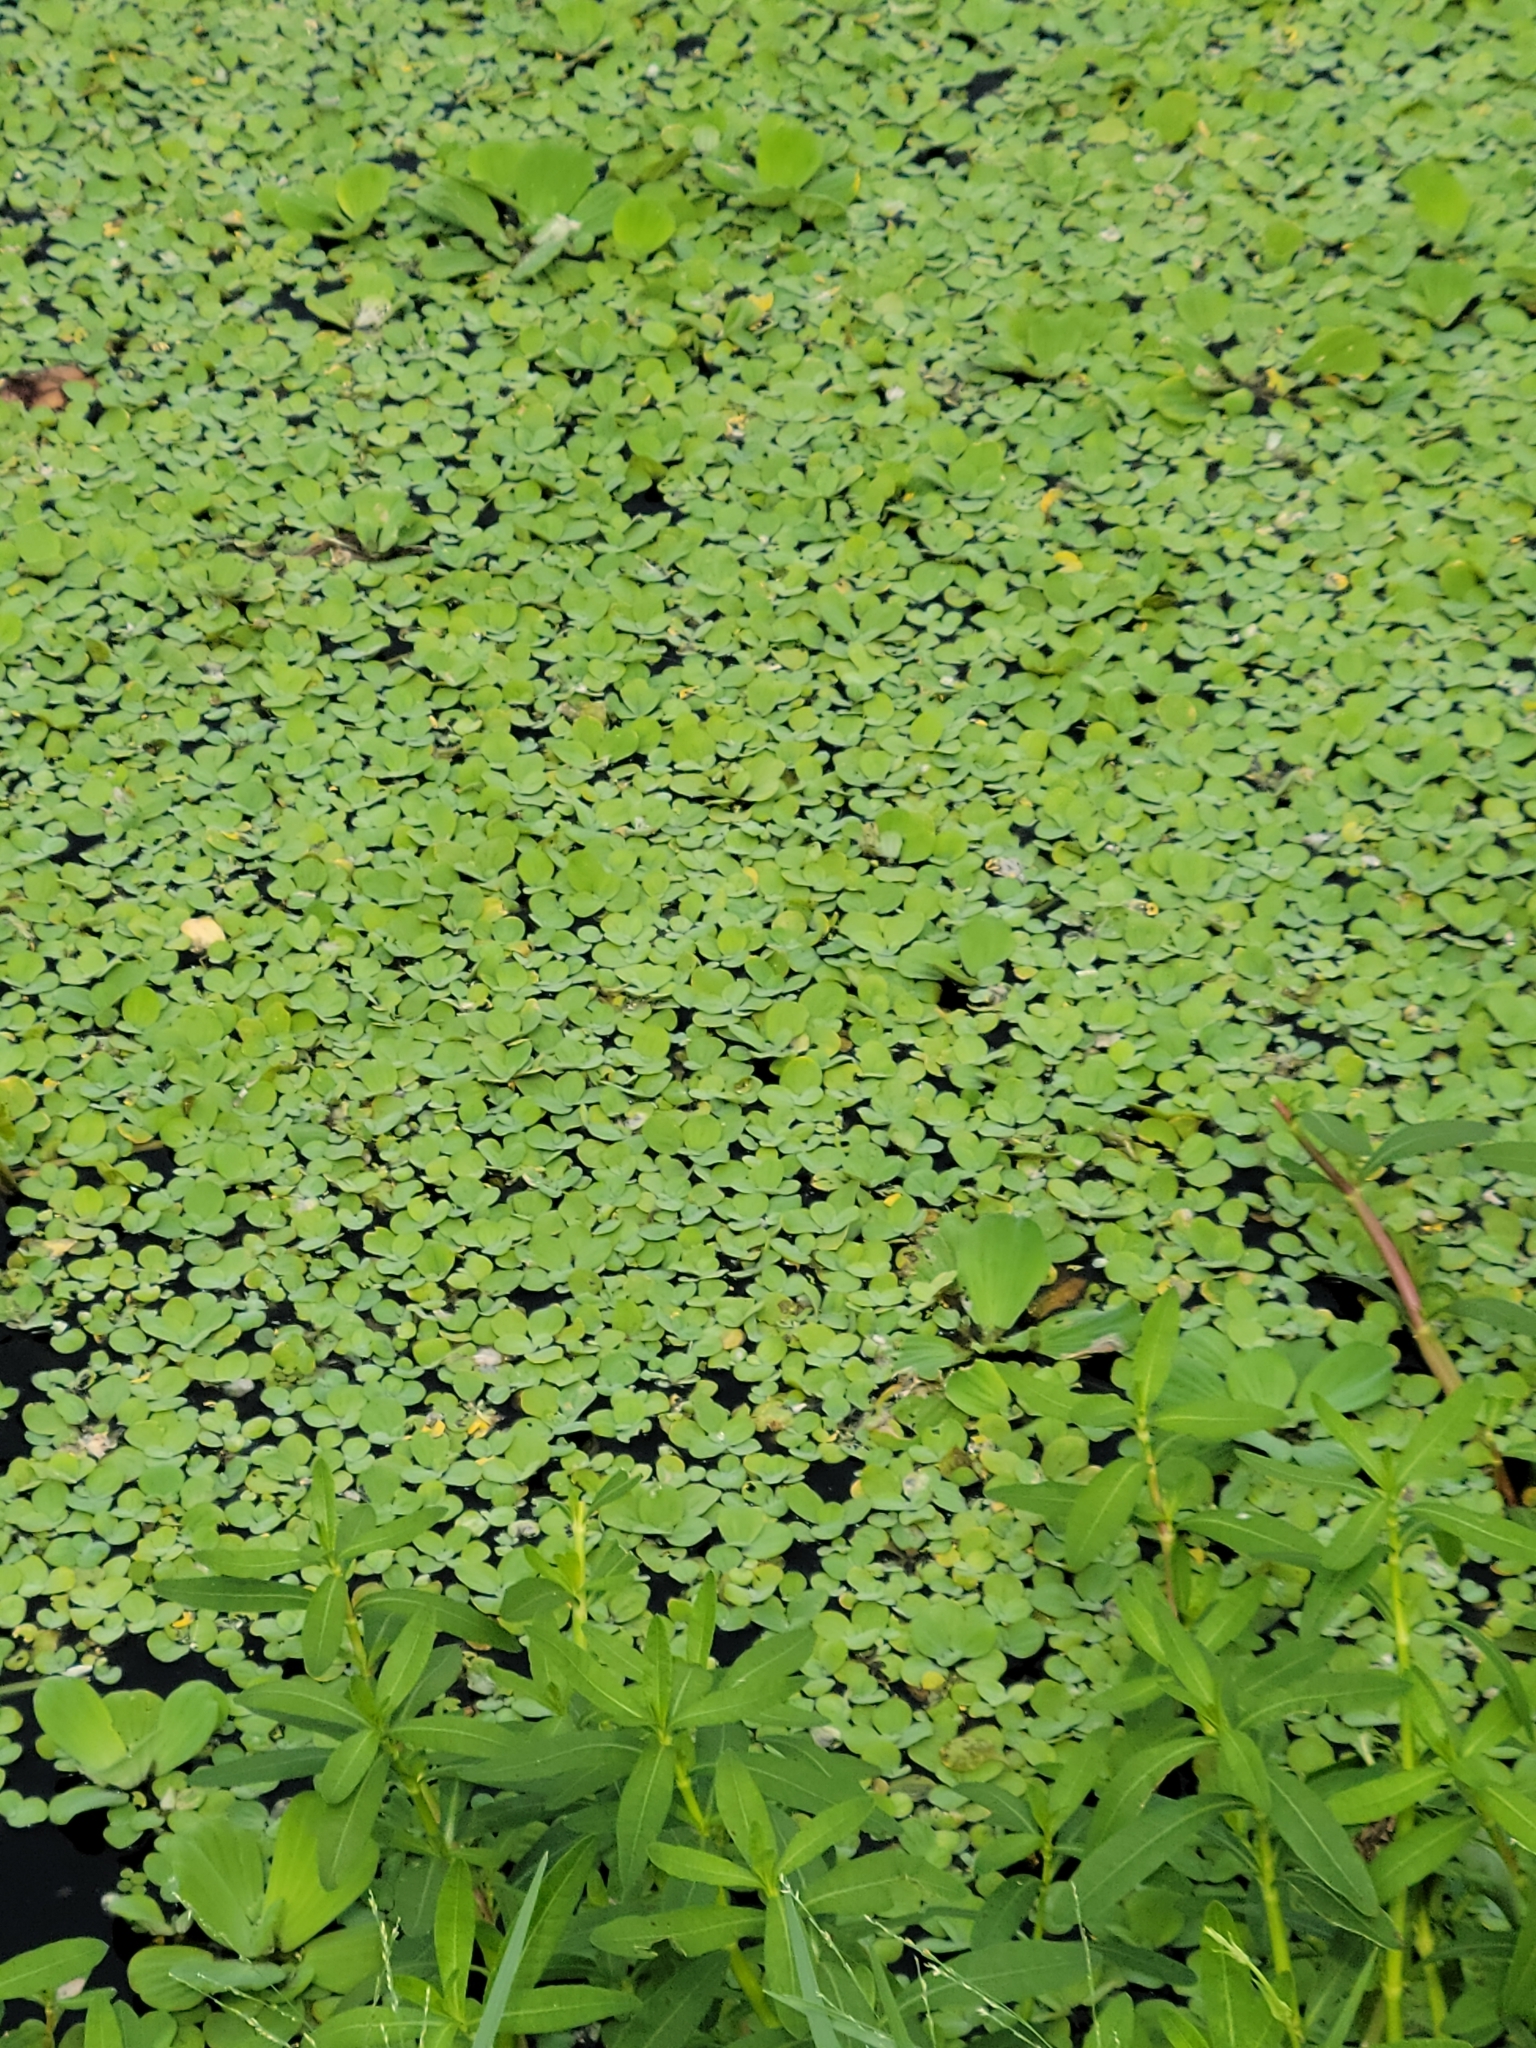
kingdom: Plantae
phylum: Tracheophyta
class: Liliopsida
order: Alismatales
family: Araceae
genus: Pistia
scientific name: Pistia stratiotes
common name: Water lettuce
